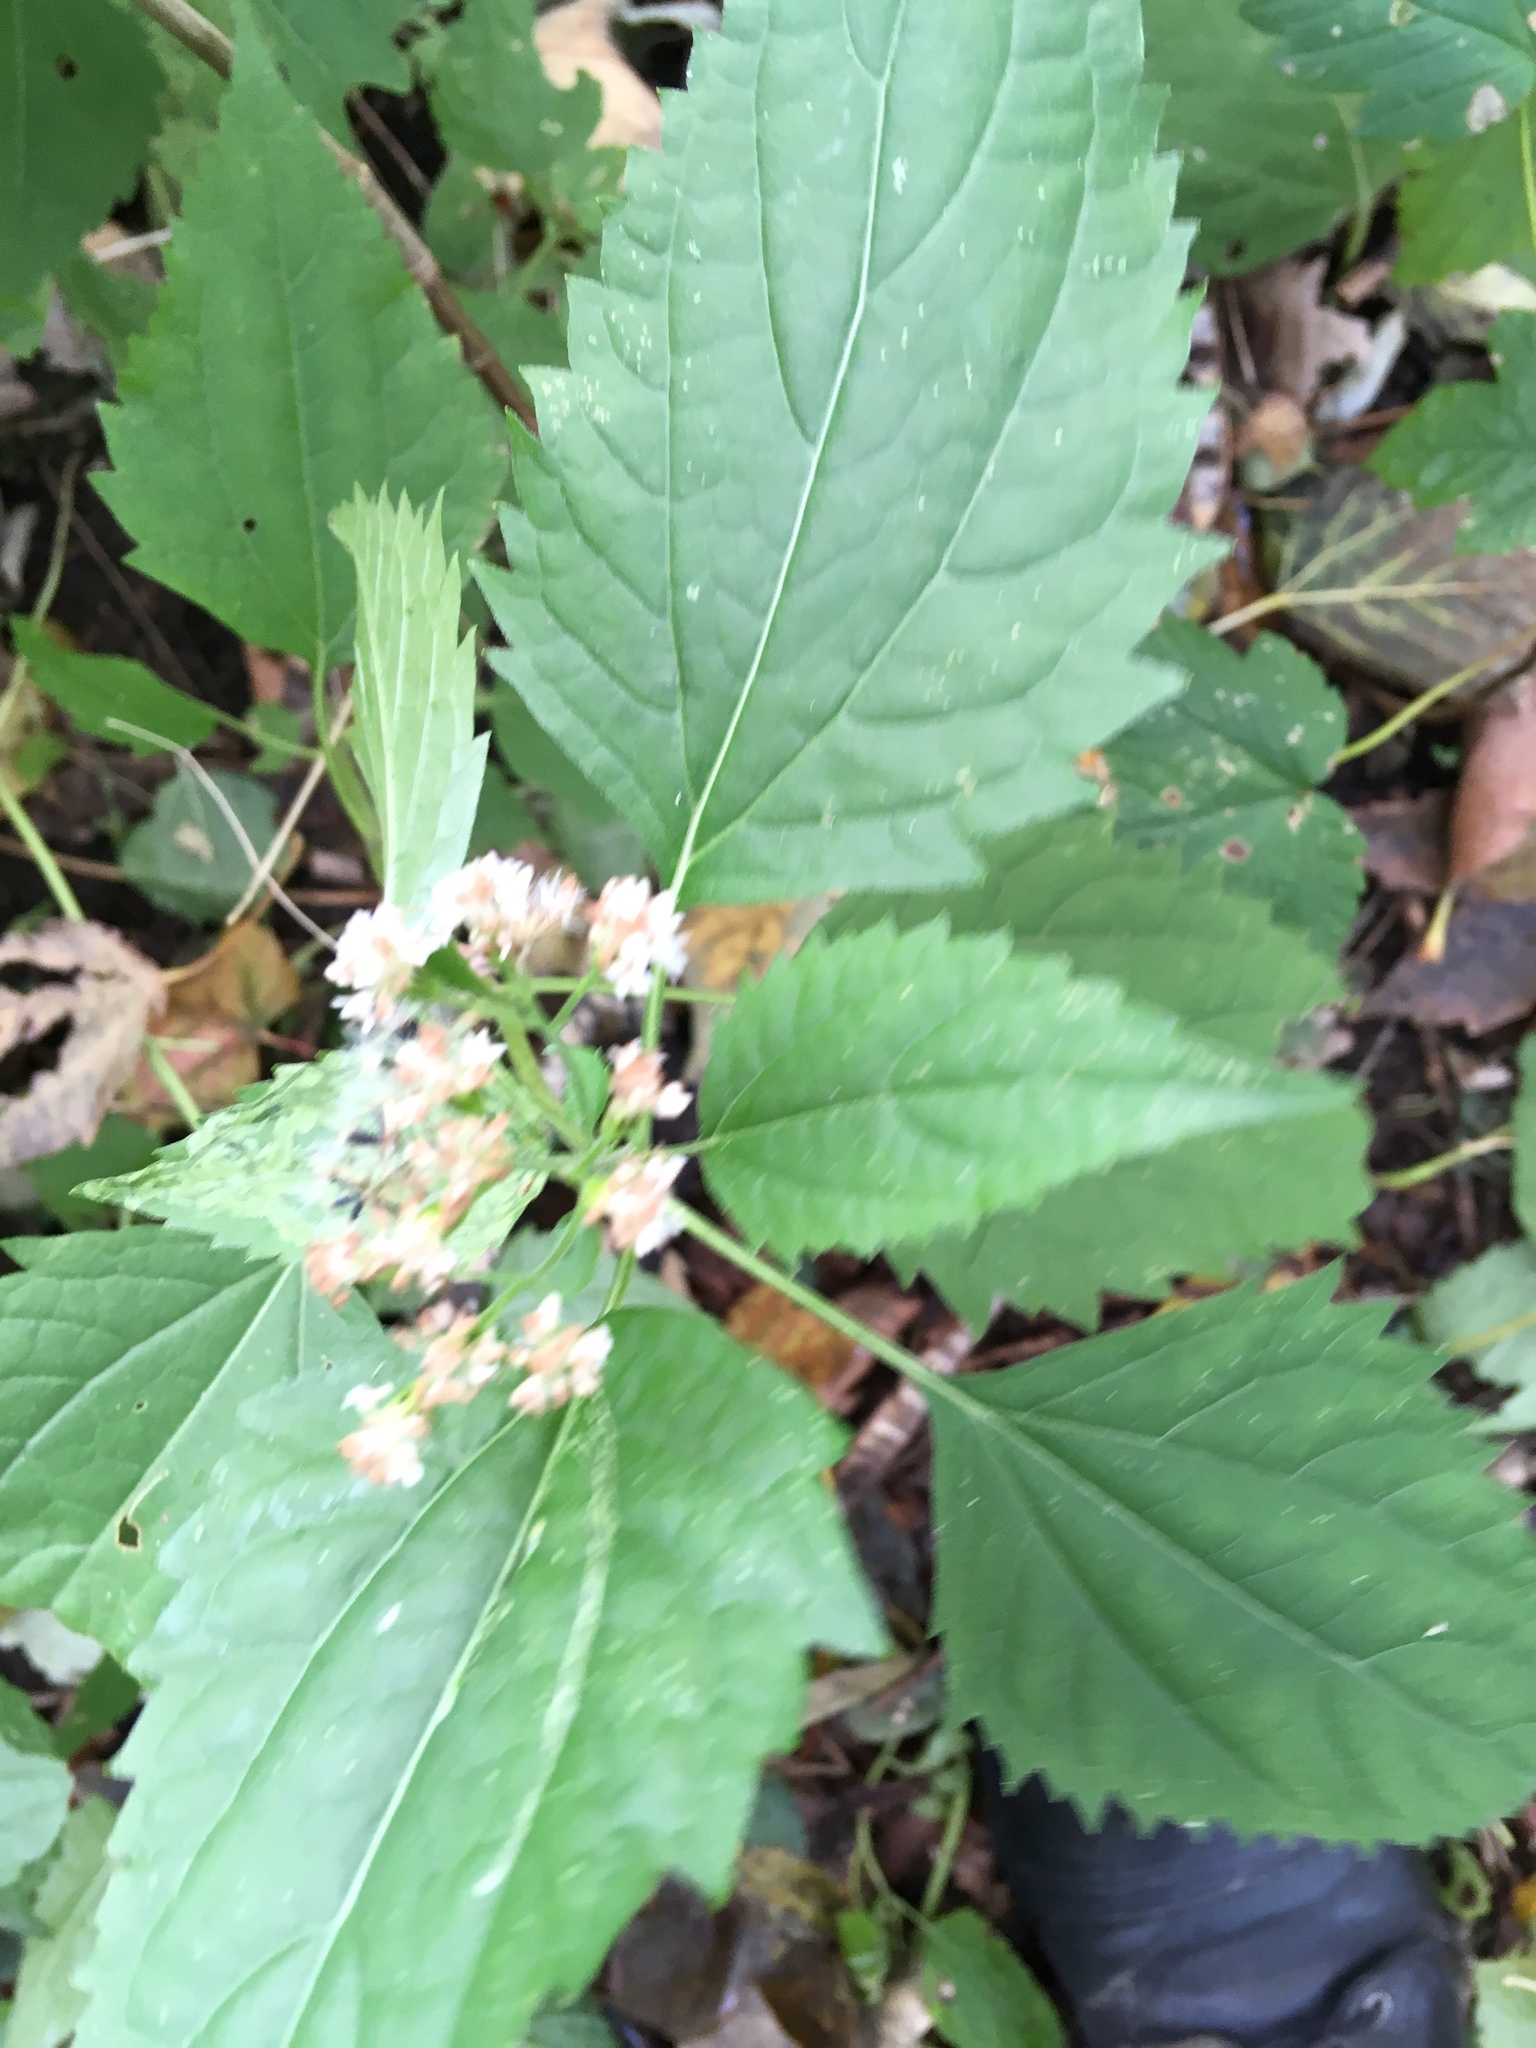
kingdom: Plantae
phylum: Tracheophyta
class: Magnoliopsida
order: Asterales
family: Asteraceae
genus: Ageratina
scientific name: Ageratina altissima
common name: White snakeroot
